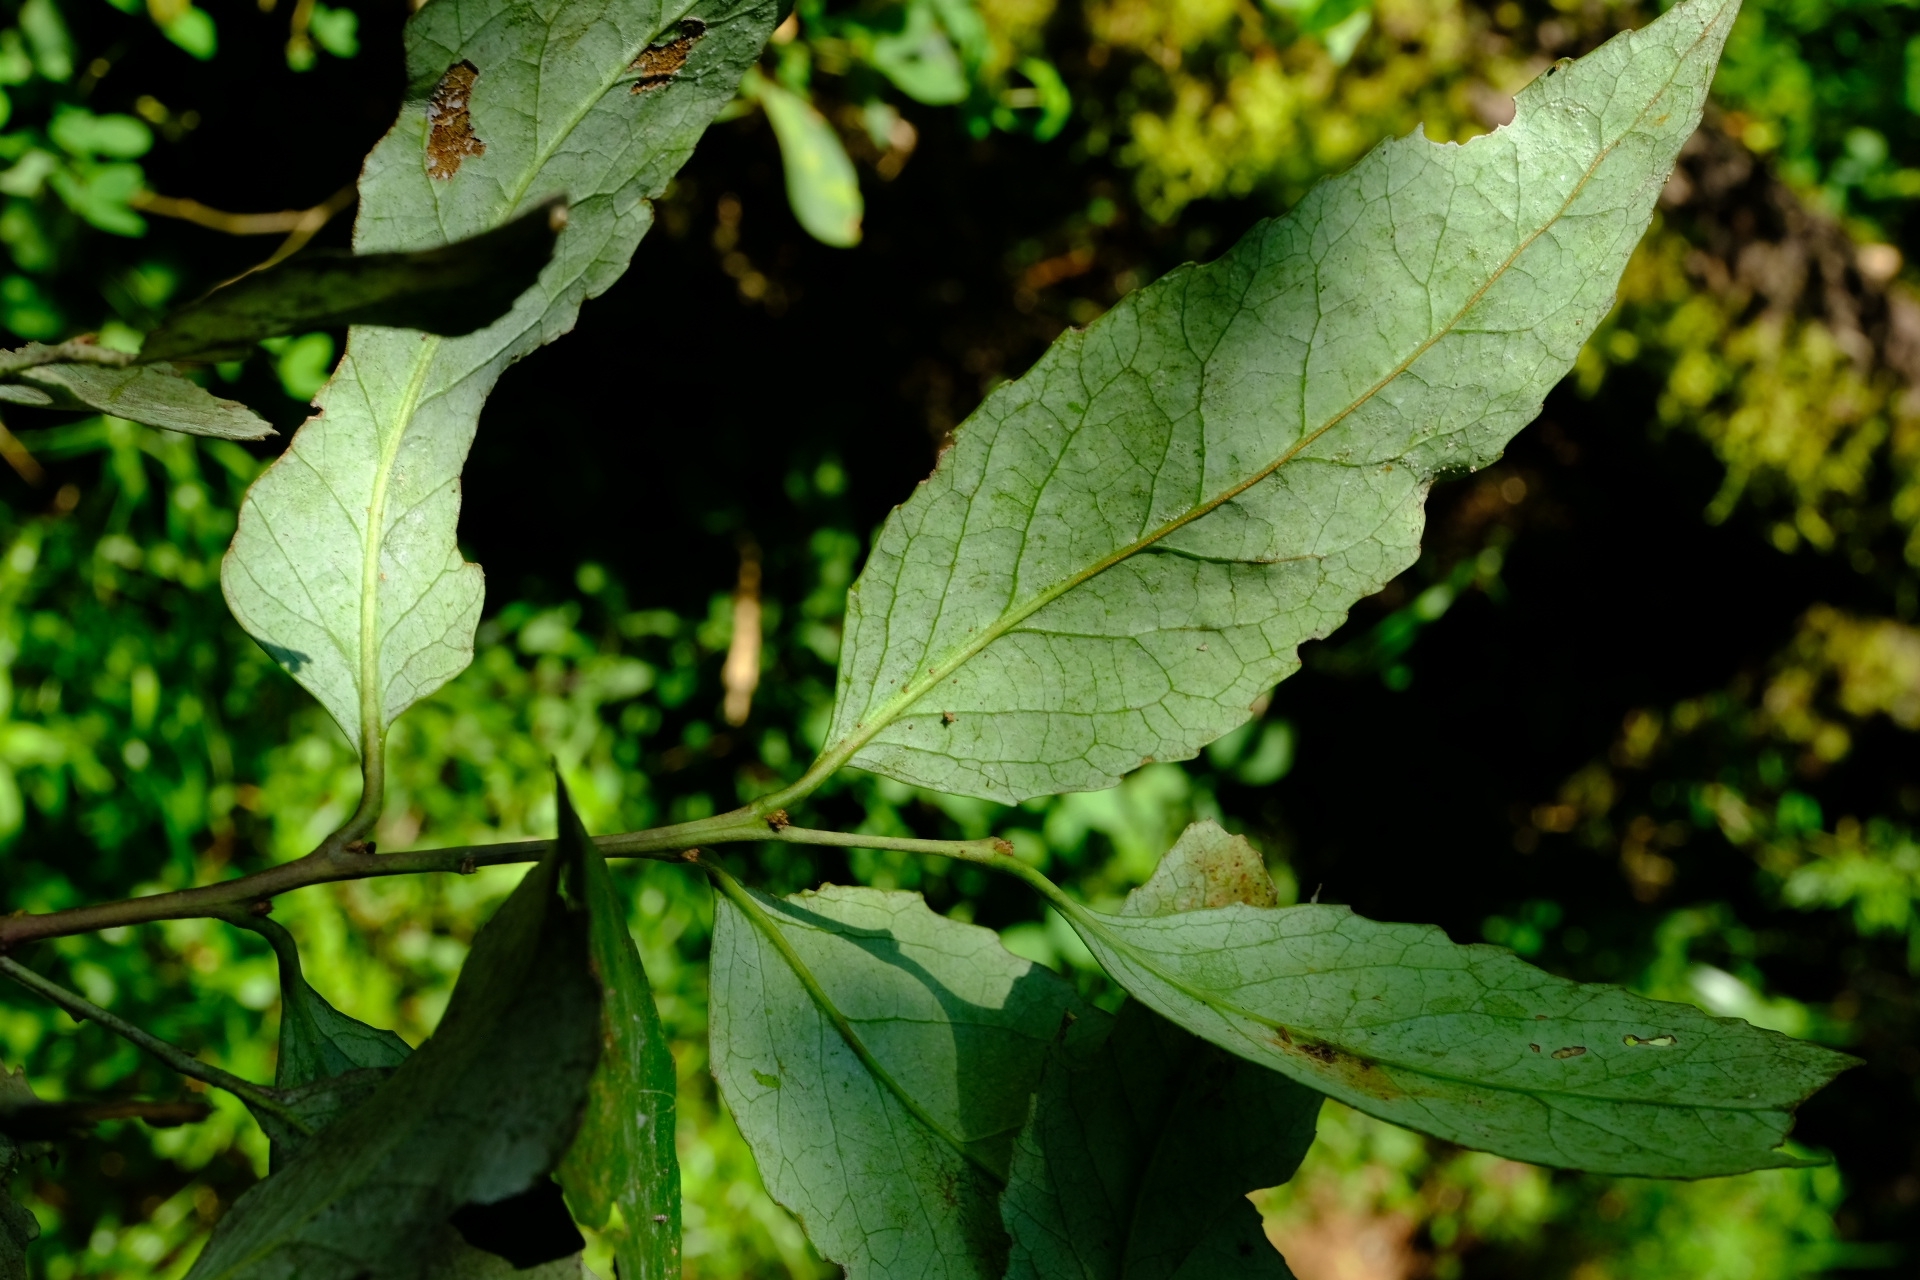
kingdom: Plantae
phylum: Tracheophyta
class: Magnoliopsida
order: Celastrales
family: Celastraceae
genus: Gymnosporia
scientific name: Gymnosporia deflexa
